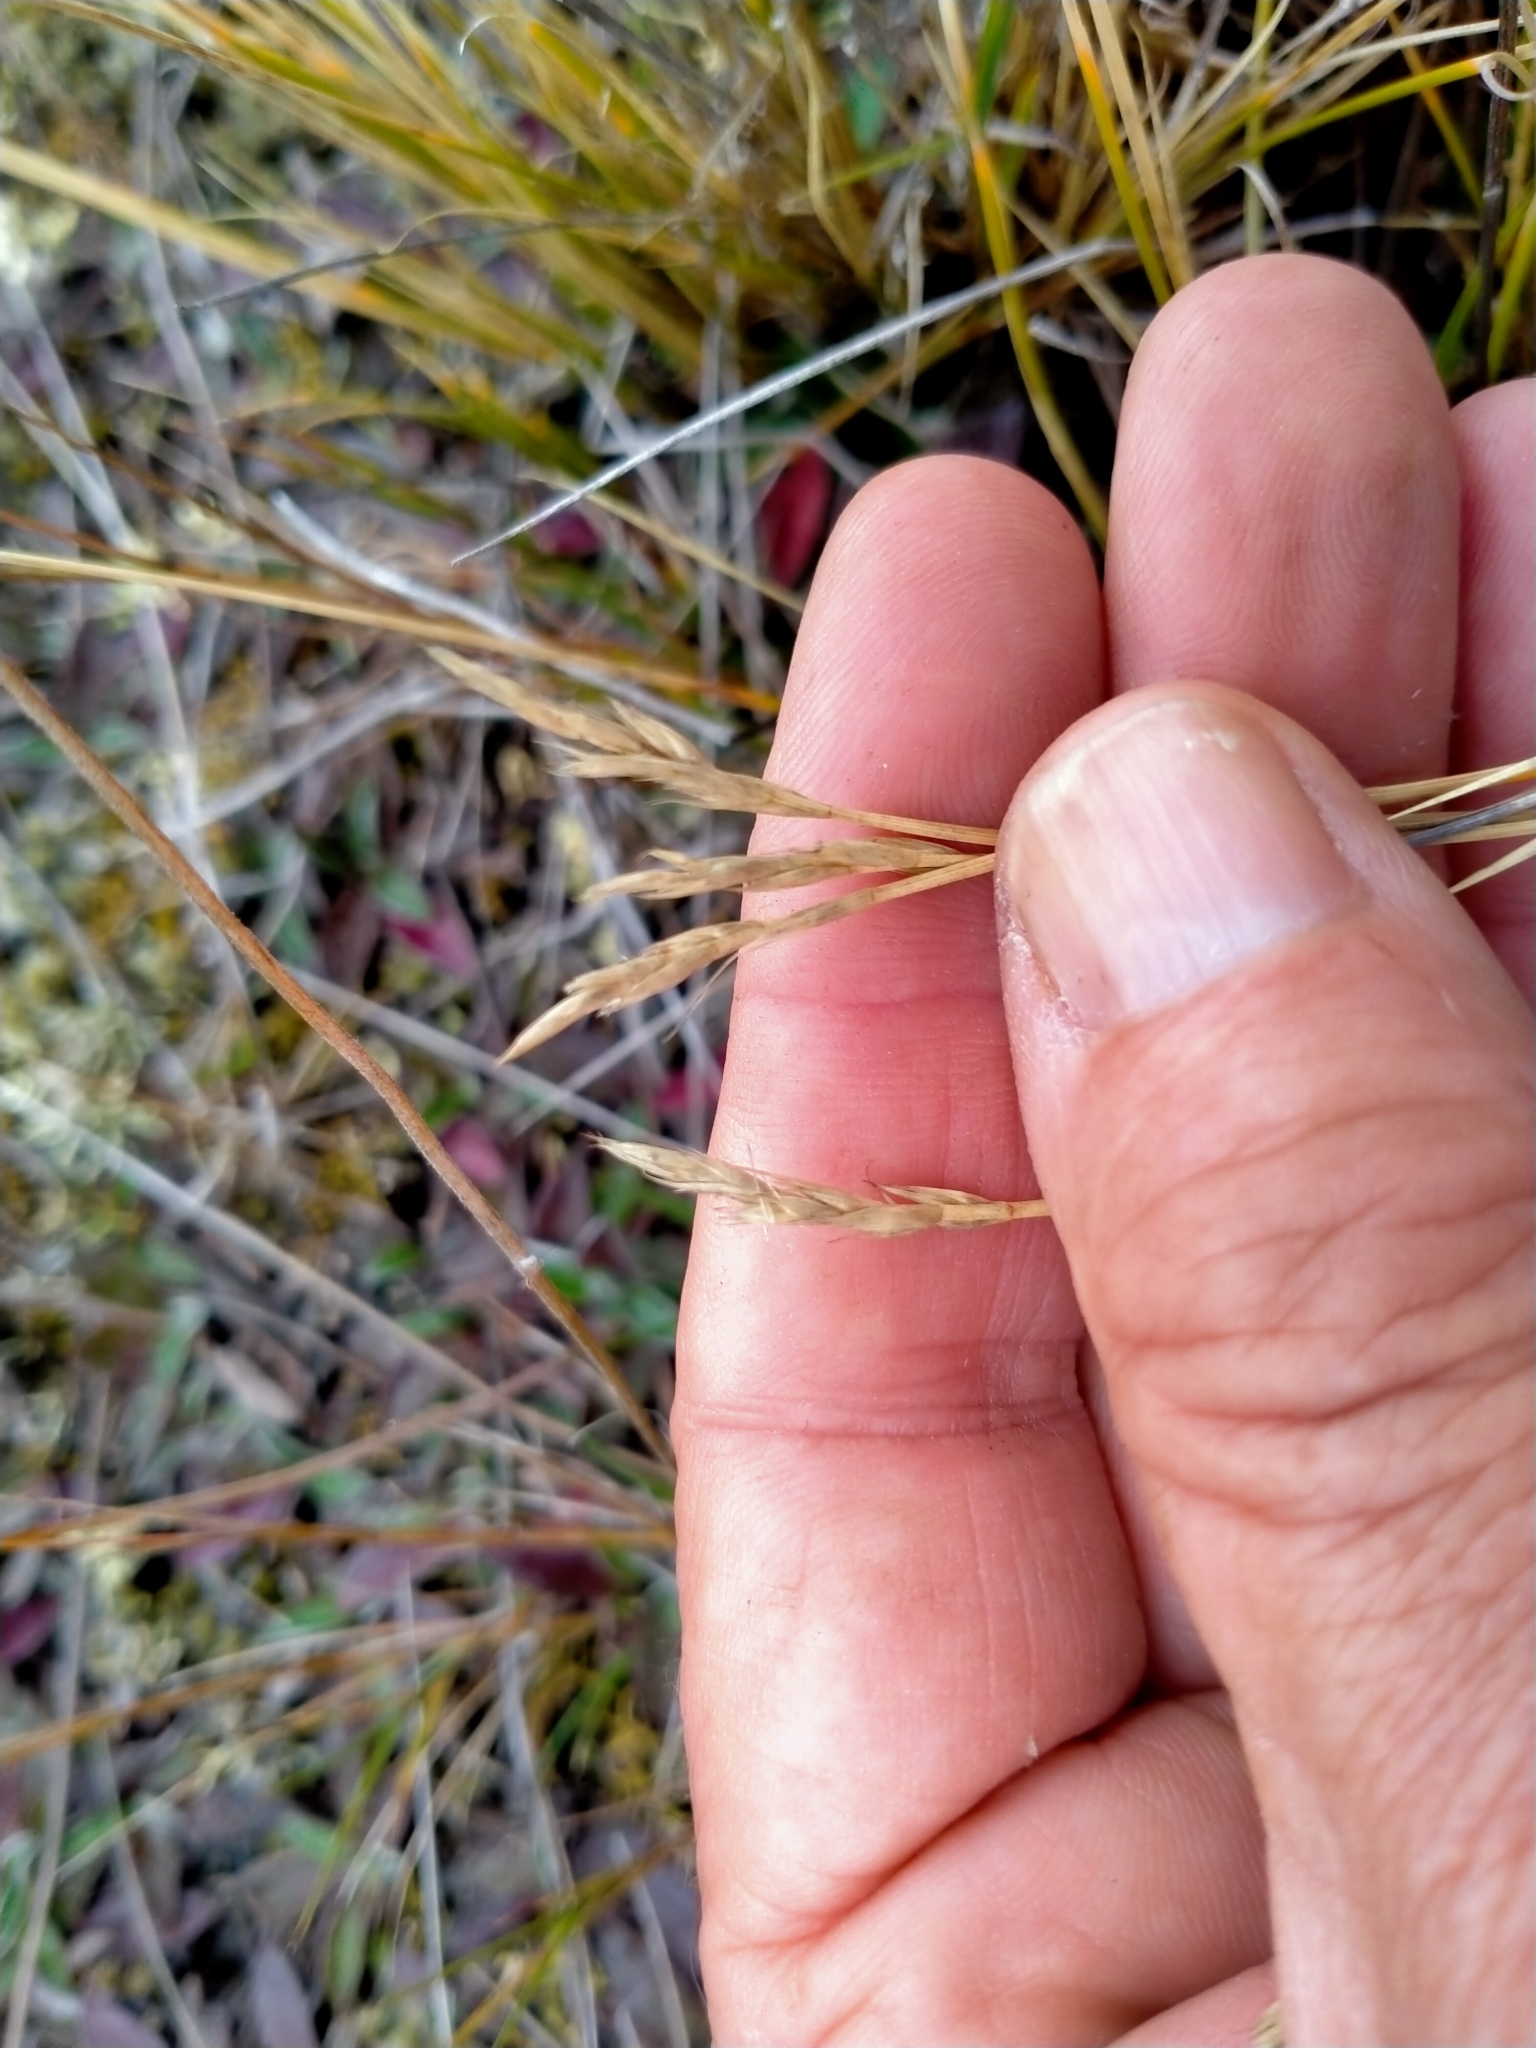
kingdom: Plantae
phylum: Tracheophyta
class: Liliopsida
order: Poales
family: Cyperaceae
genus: Carex
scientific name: Carex muelleri
